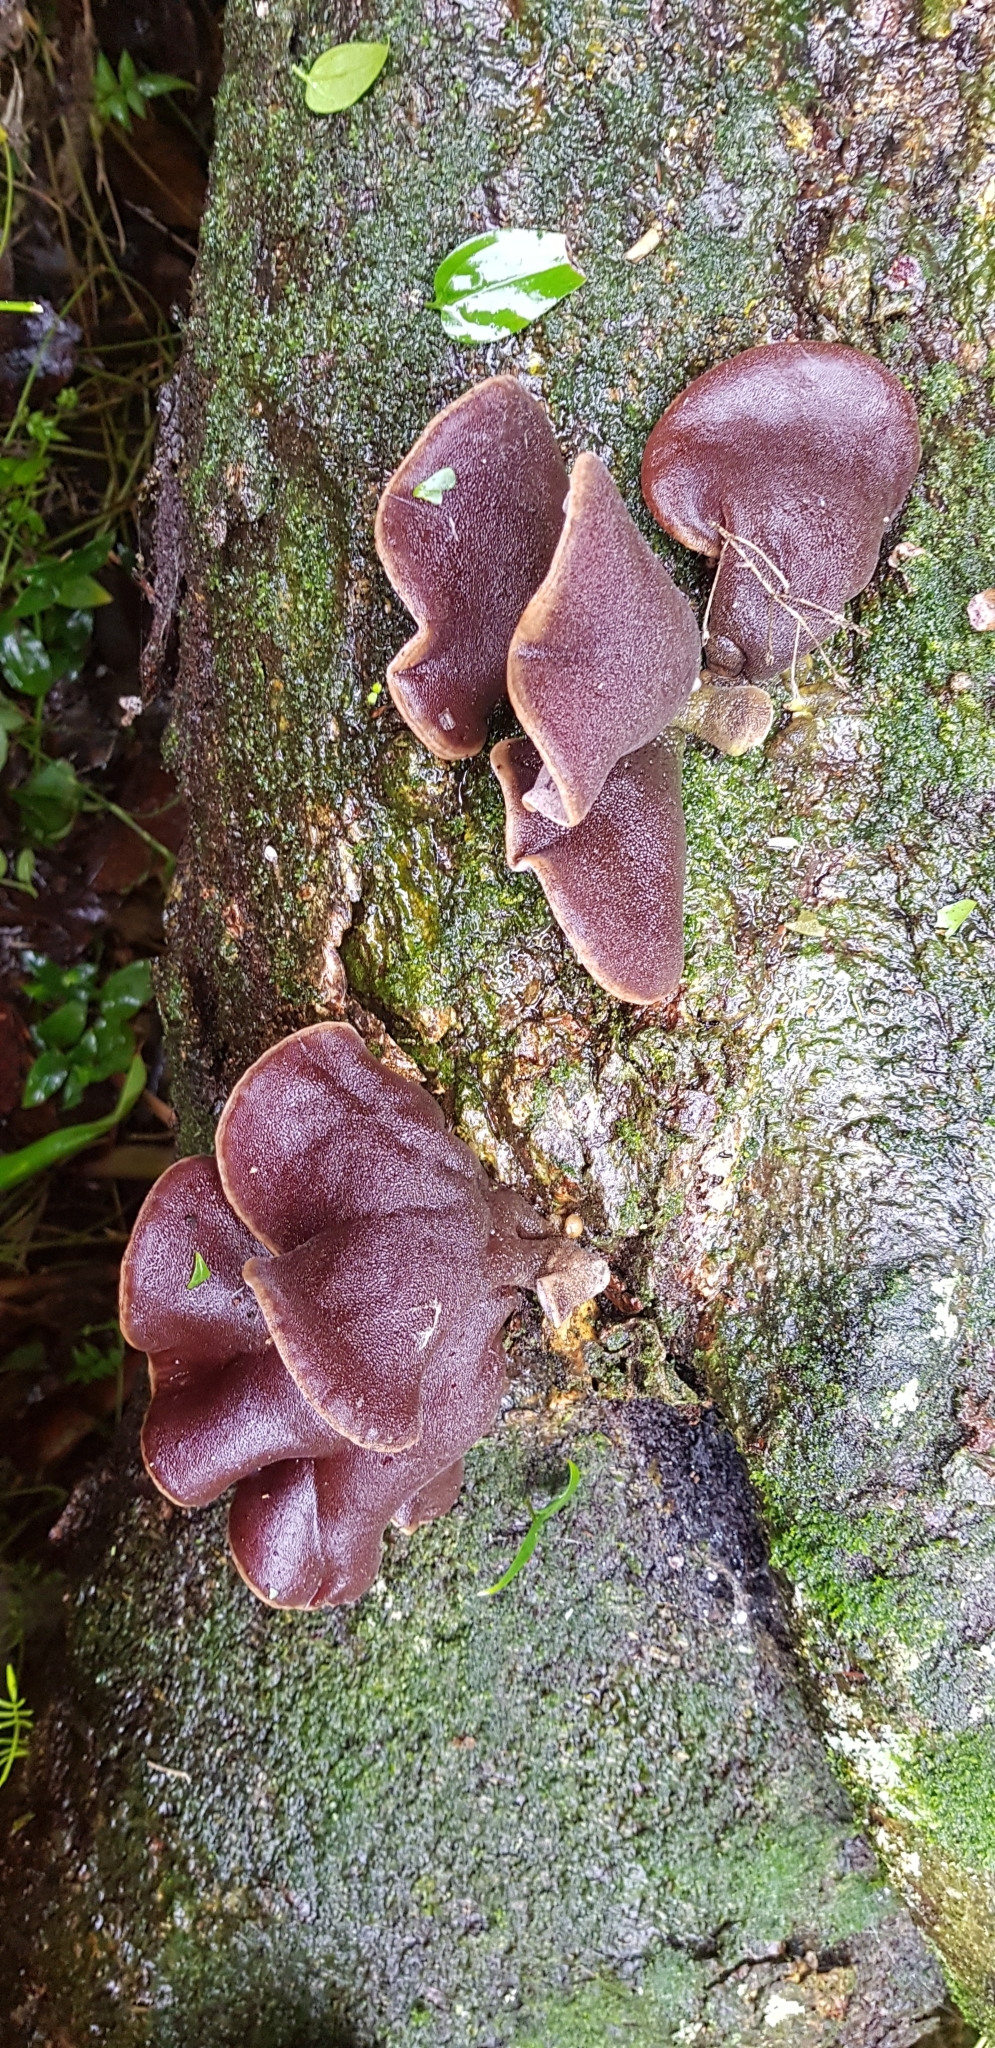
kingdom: Fungi
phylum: Basidiomycota
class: Agaricomycetes
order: Auriculariales
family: Auriculariaceae
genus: Auricularia
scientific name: Auricularia cornea
